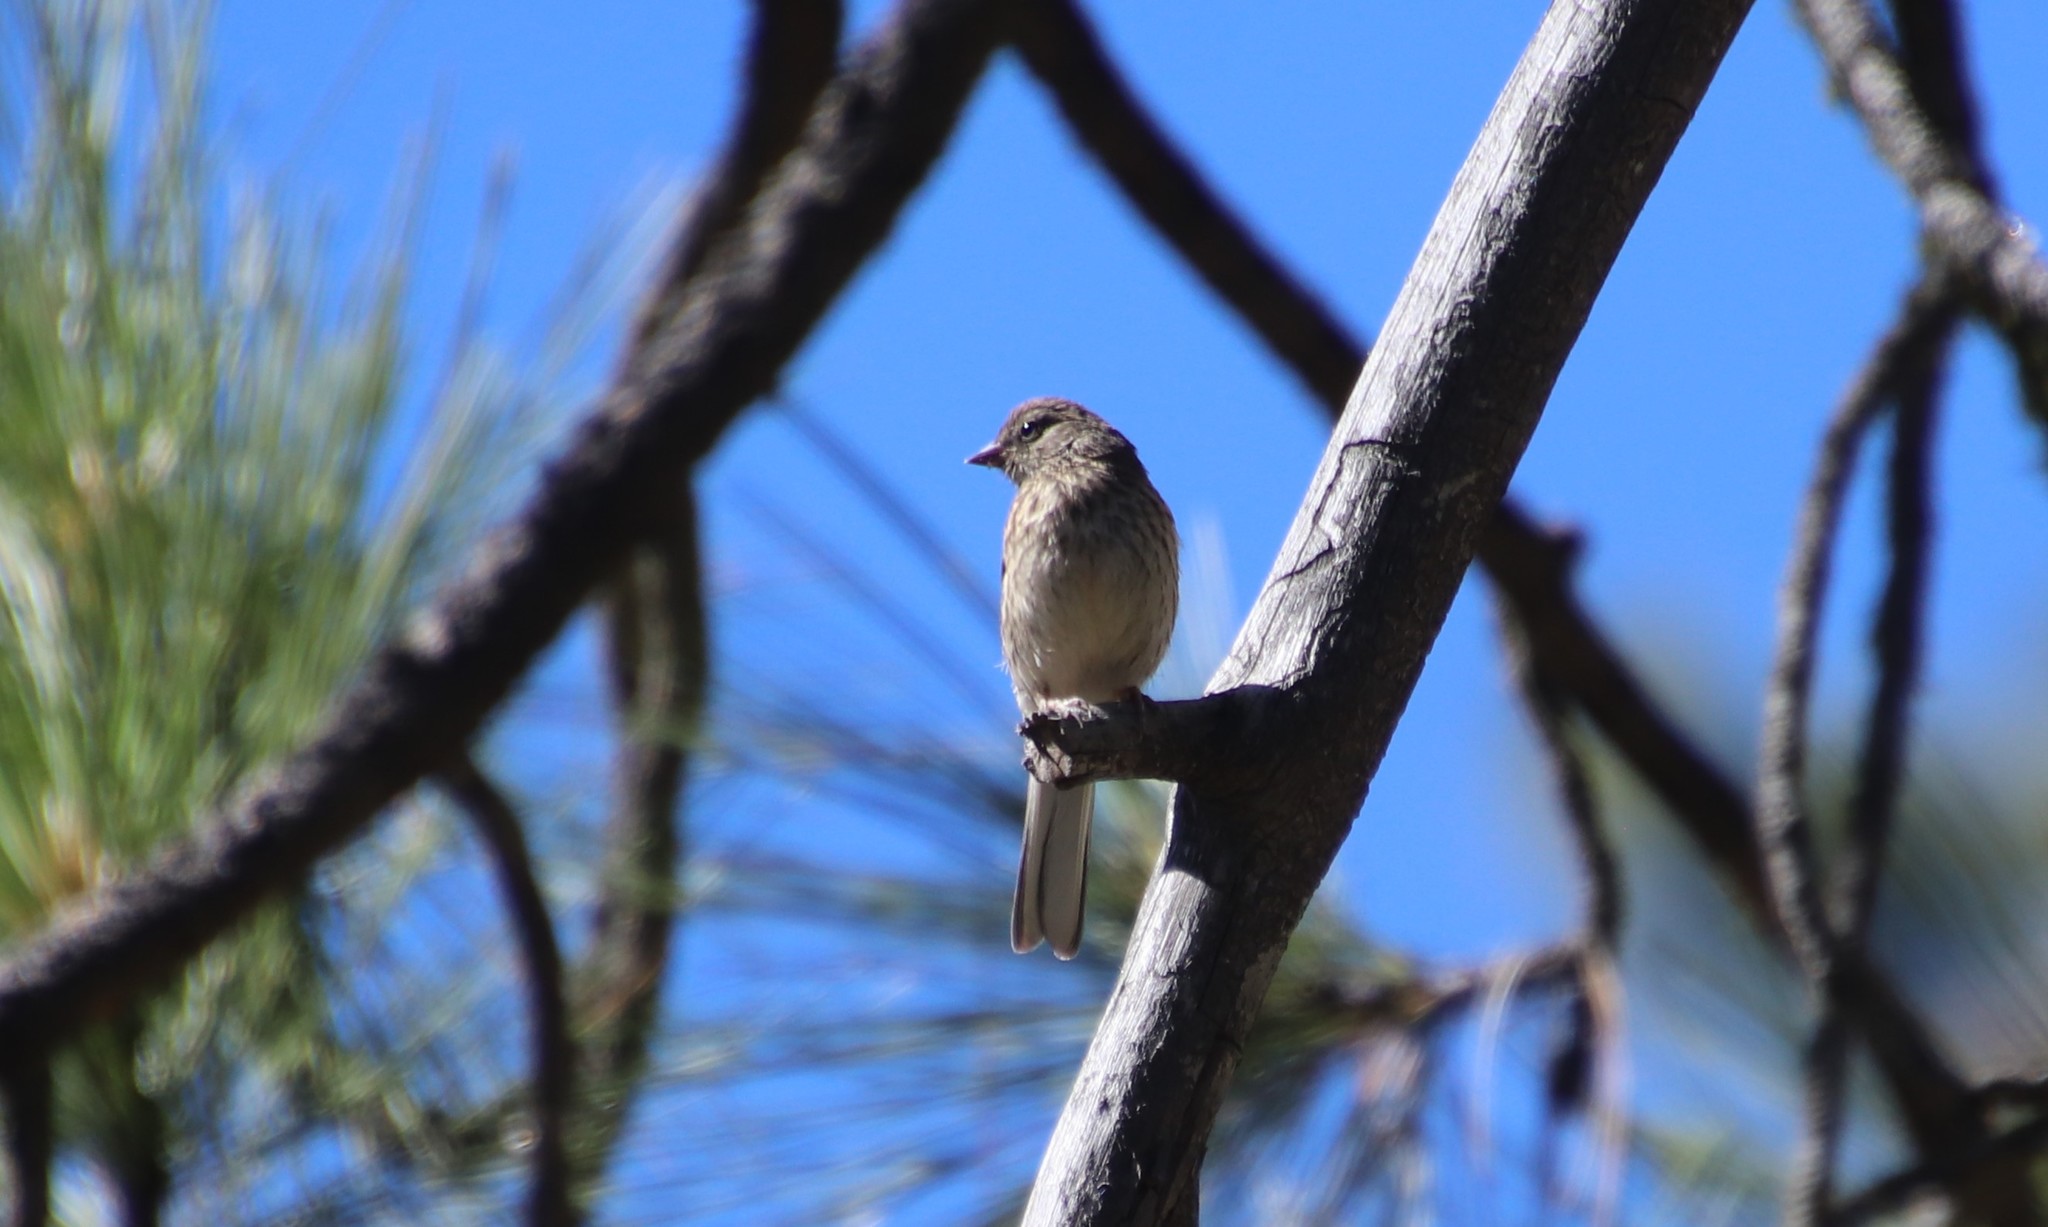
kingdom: Animalia
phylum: Chordata
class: Aves
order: Passeriformes
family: Passerellidae
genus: Junco
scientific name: Junco hyemalis
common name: Dark-eyed junco
